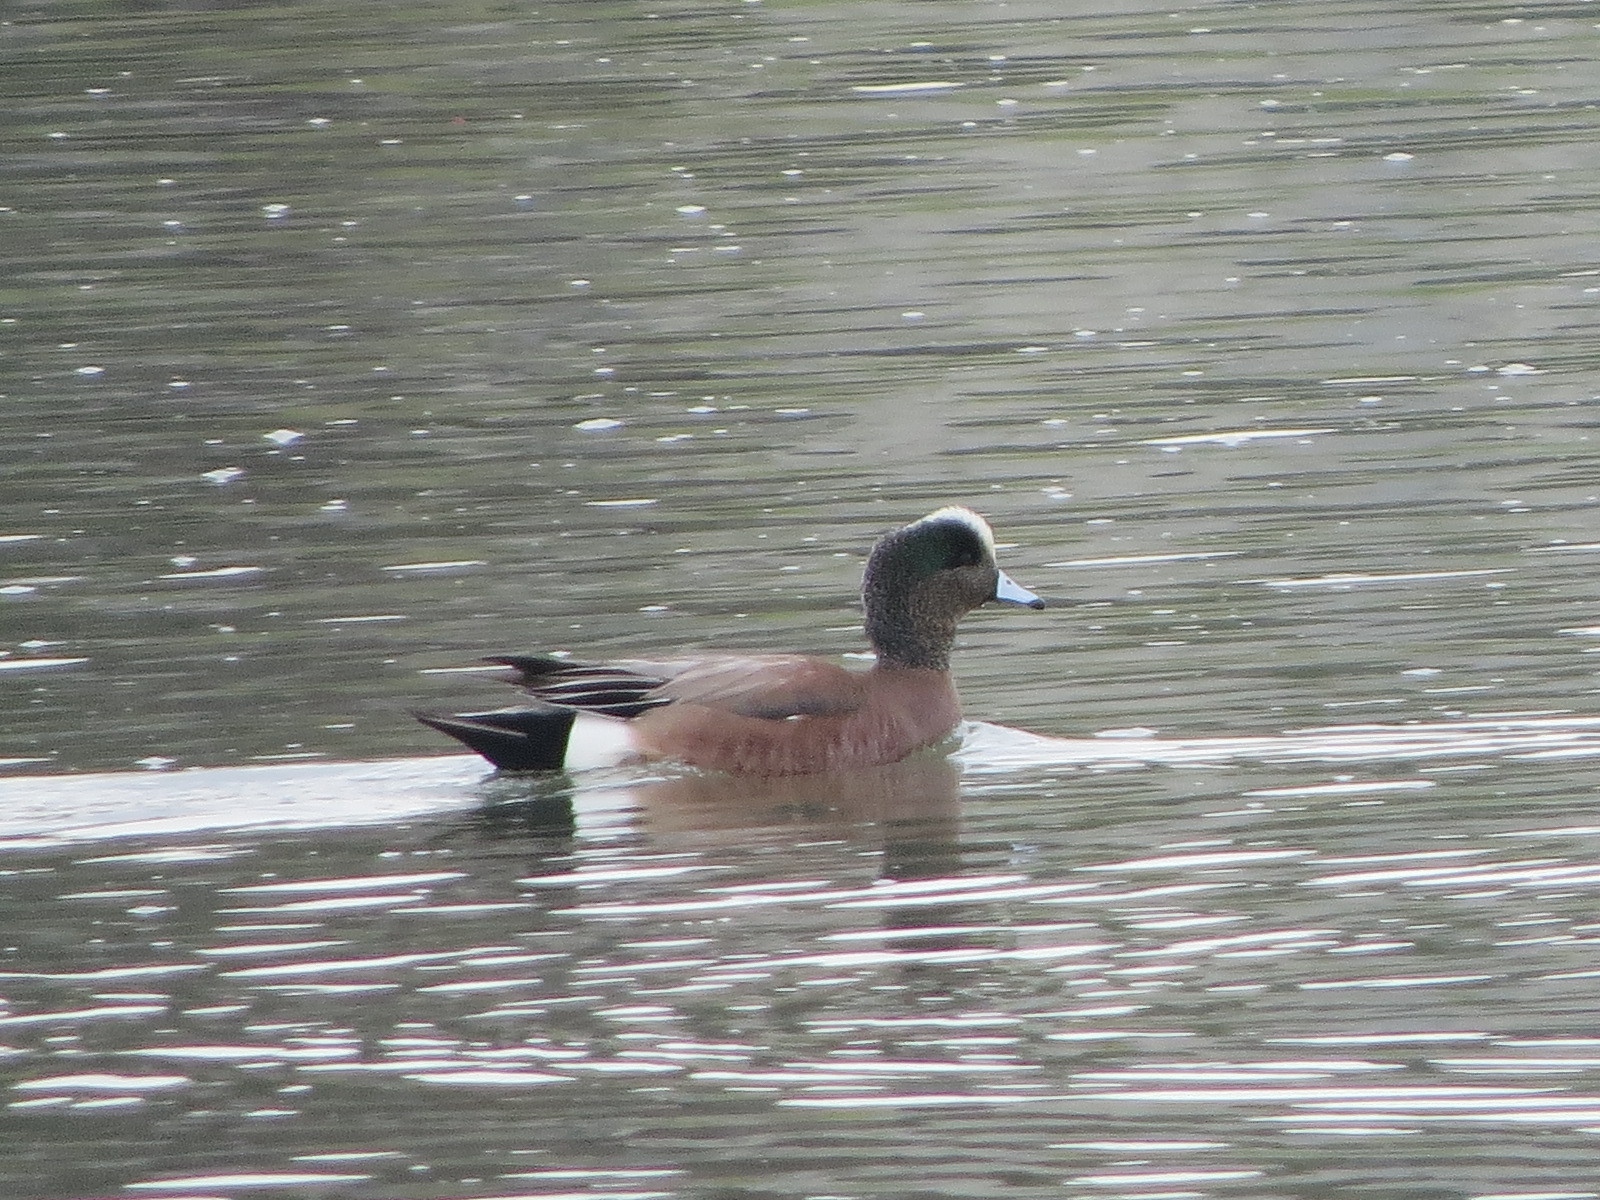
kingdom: Animalia
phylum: Chordata
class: Aves
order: Anseriformes
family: Anatidae
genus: Mareca
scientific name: Mareca americana
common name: American wigeon
